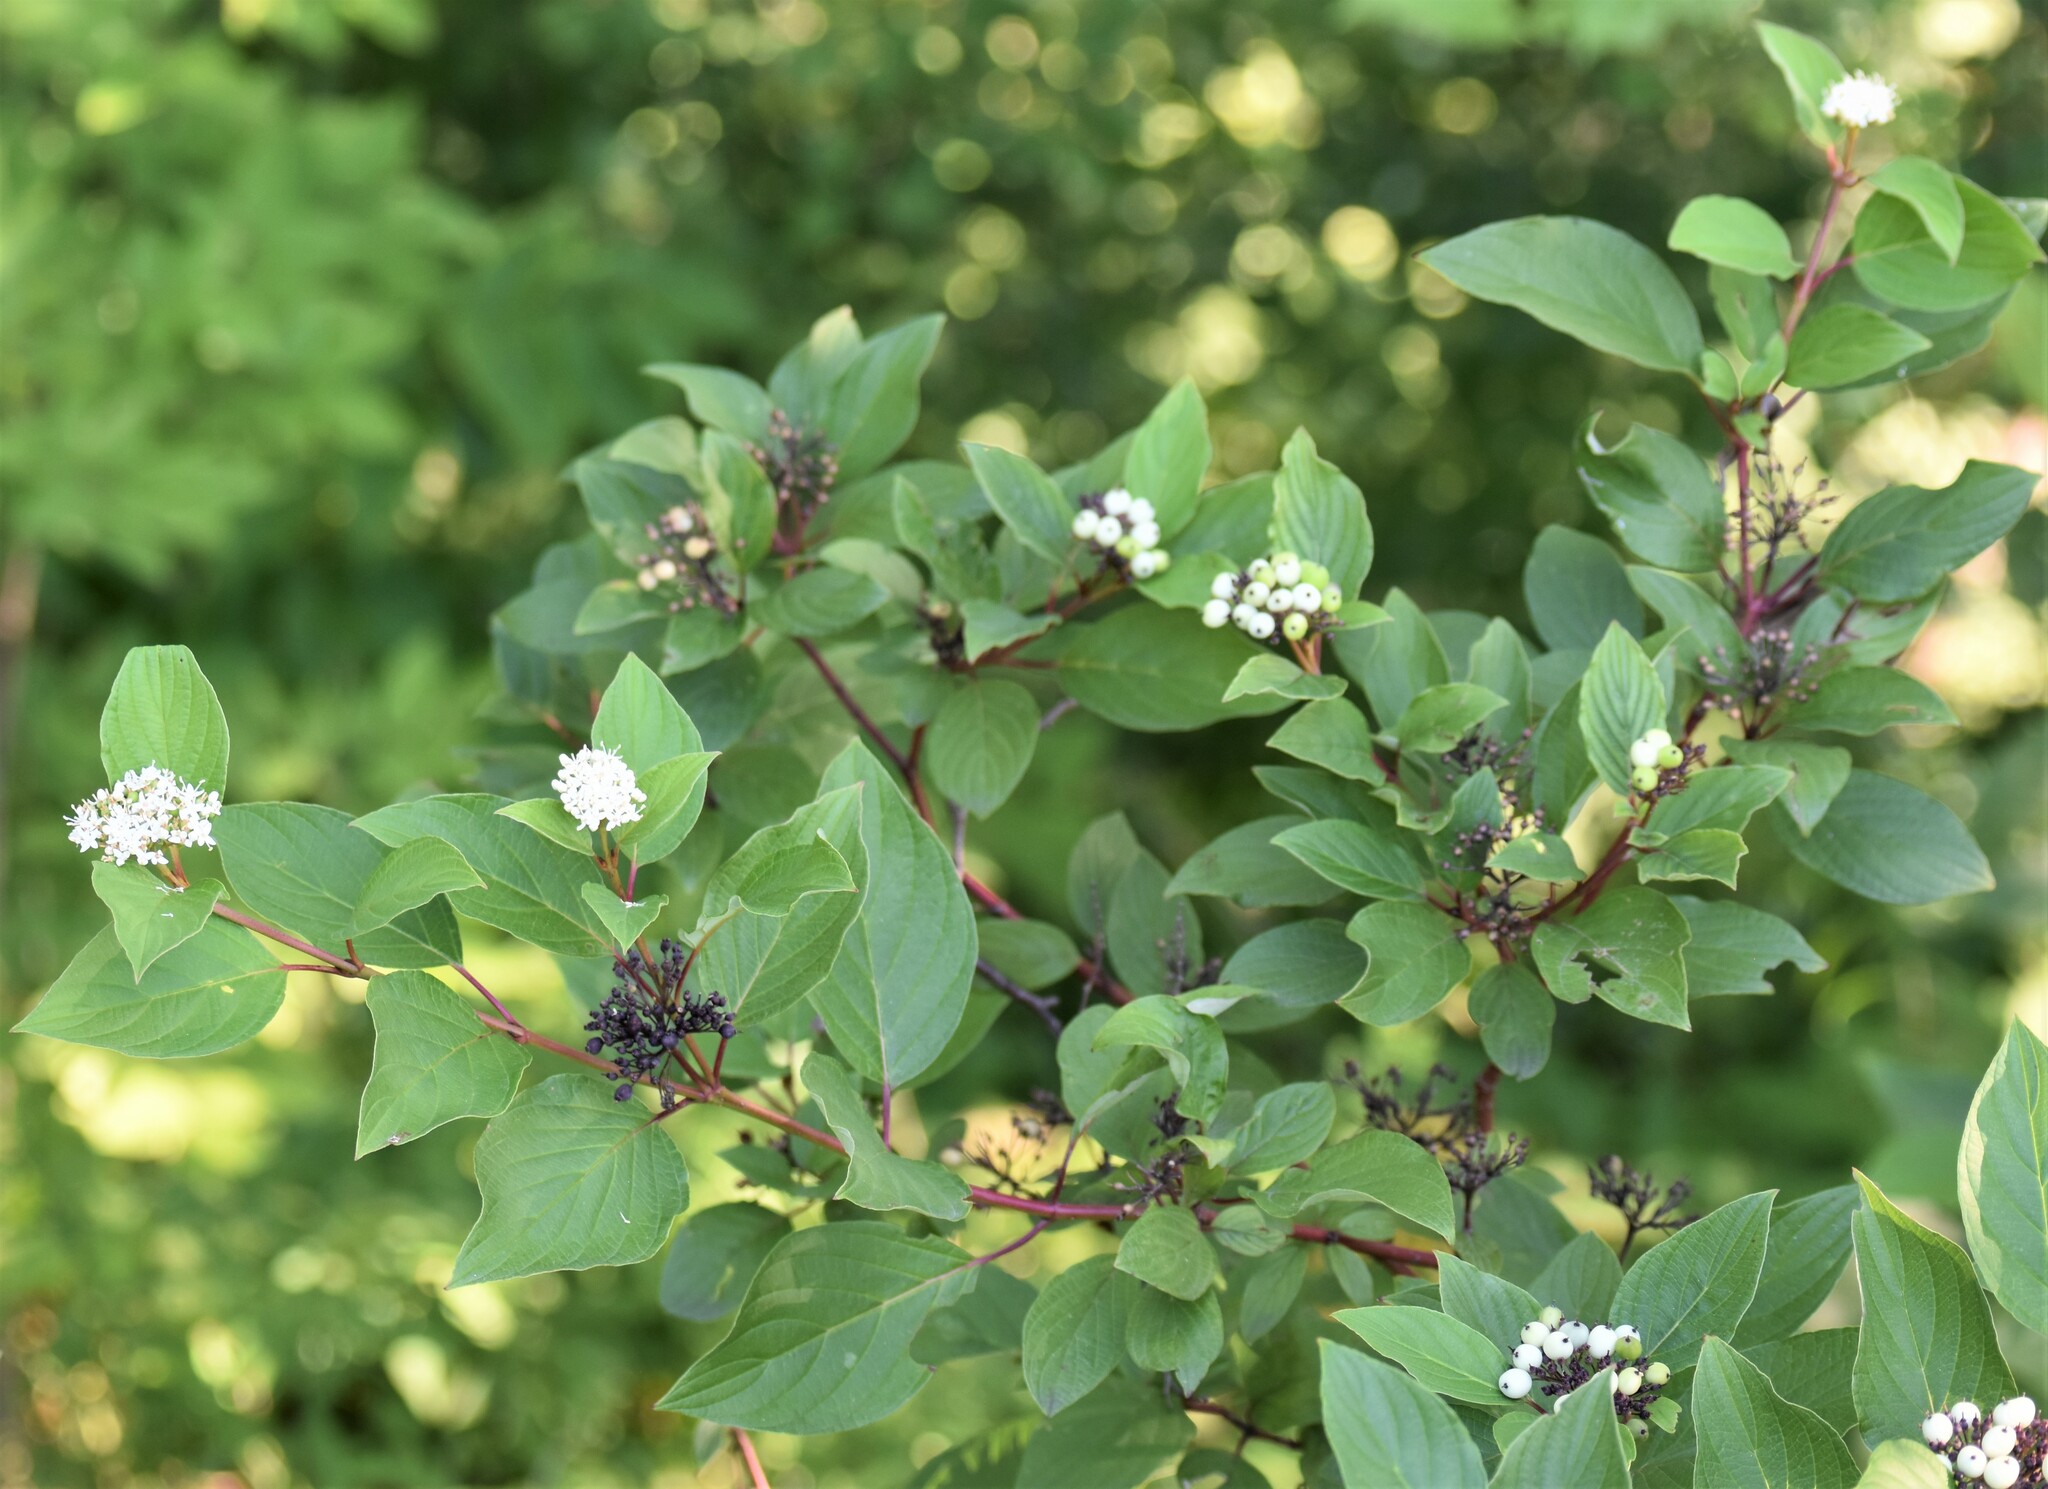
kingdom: Plantae
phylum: Tracheophyta
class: Magnoliopsida
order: Cornales
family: Cornaceae
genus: Cornus
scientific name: Cornus sericea
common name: Red-osier dogwood
